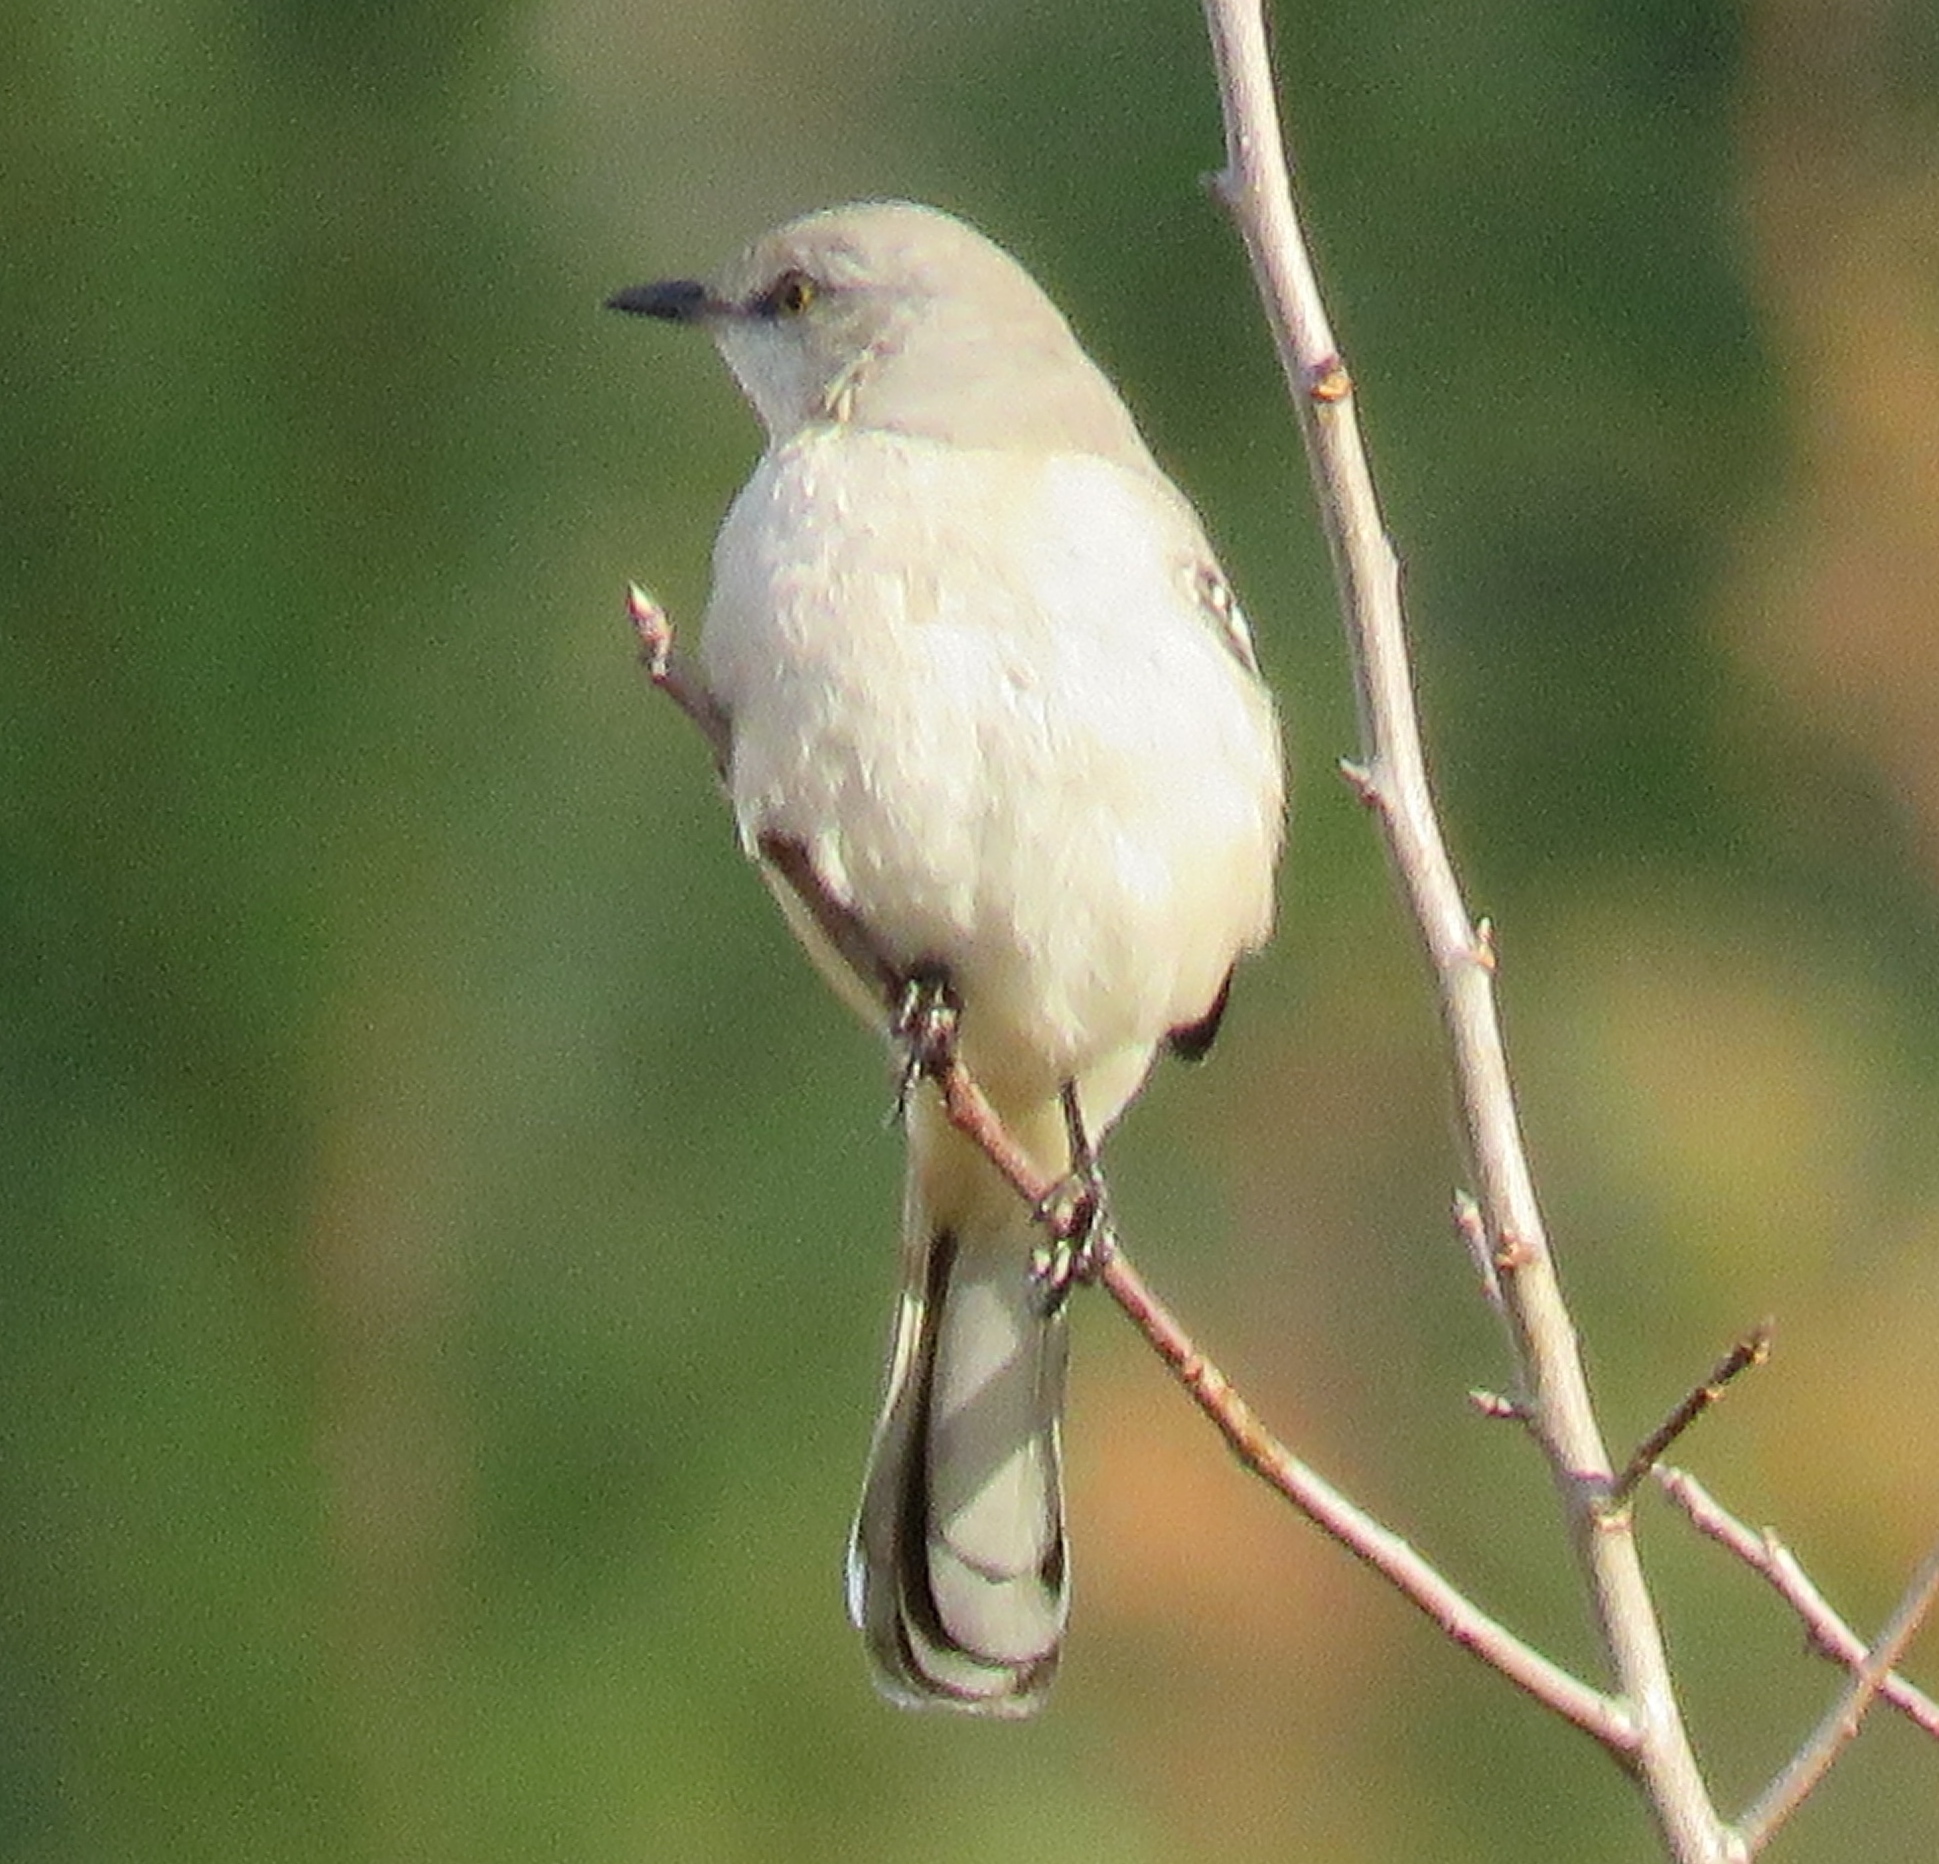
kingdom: Animalia
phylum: Chordata
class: Aves
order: Passeriformes
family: Mimidae
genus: Mimus
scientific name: Mimus polyglottos
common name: Northern mockingbird
